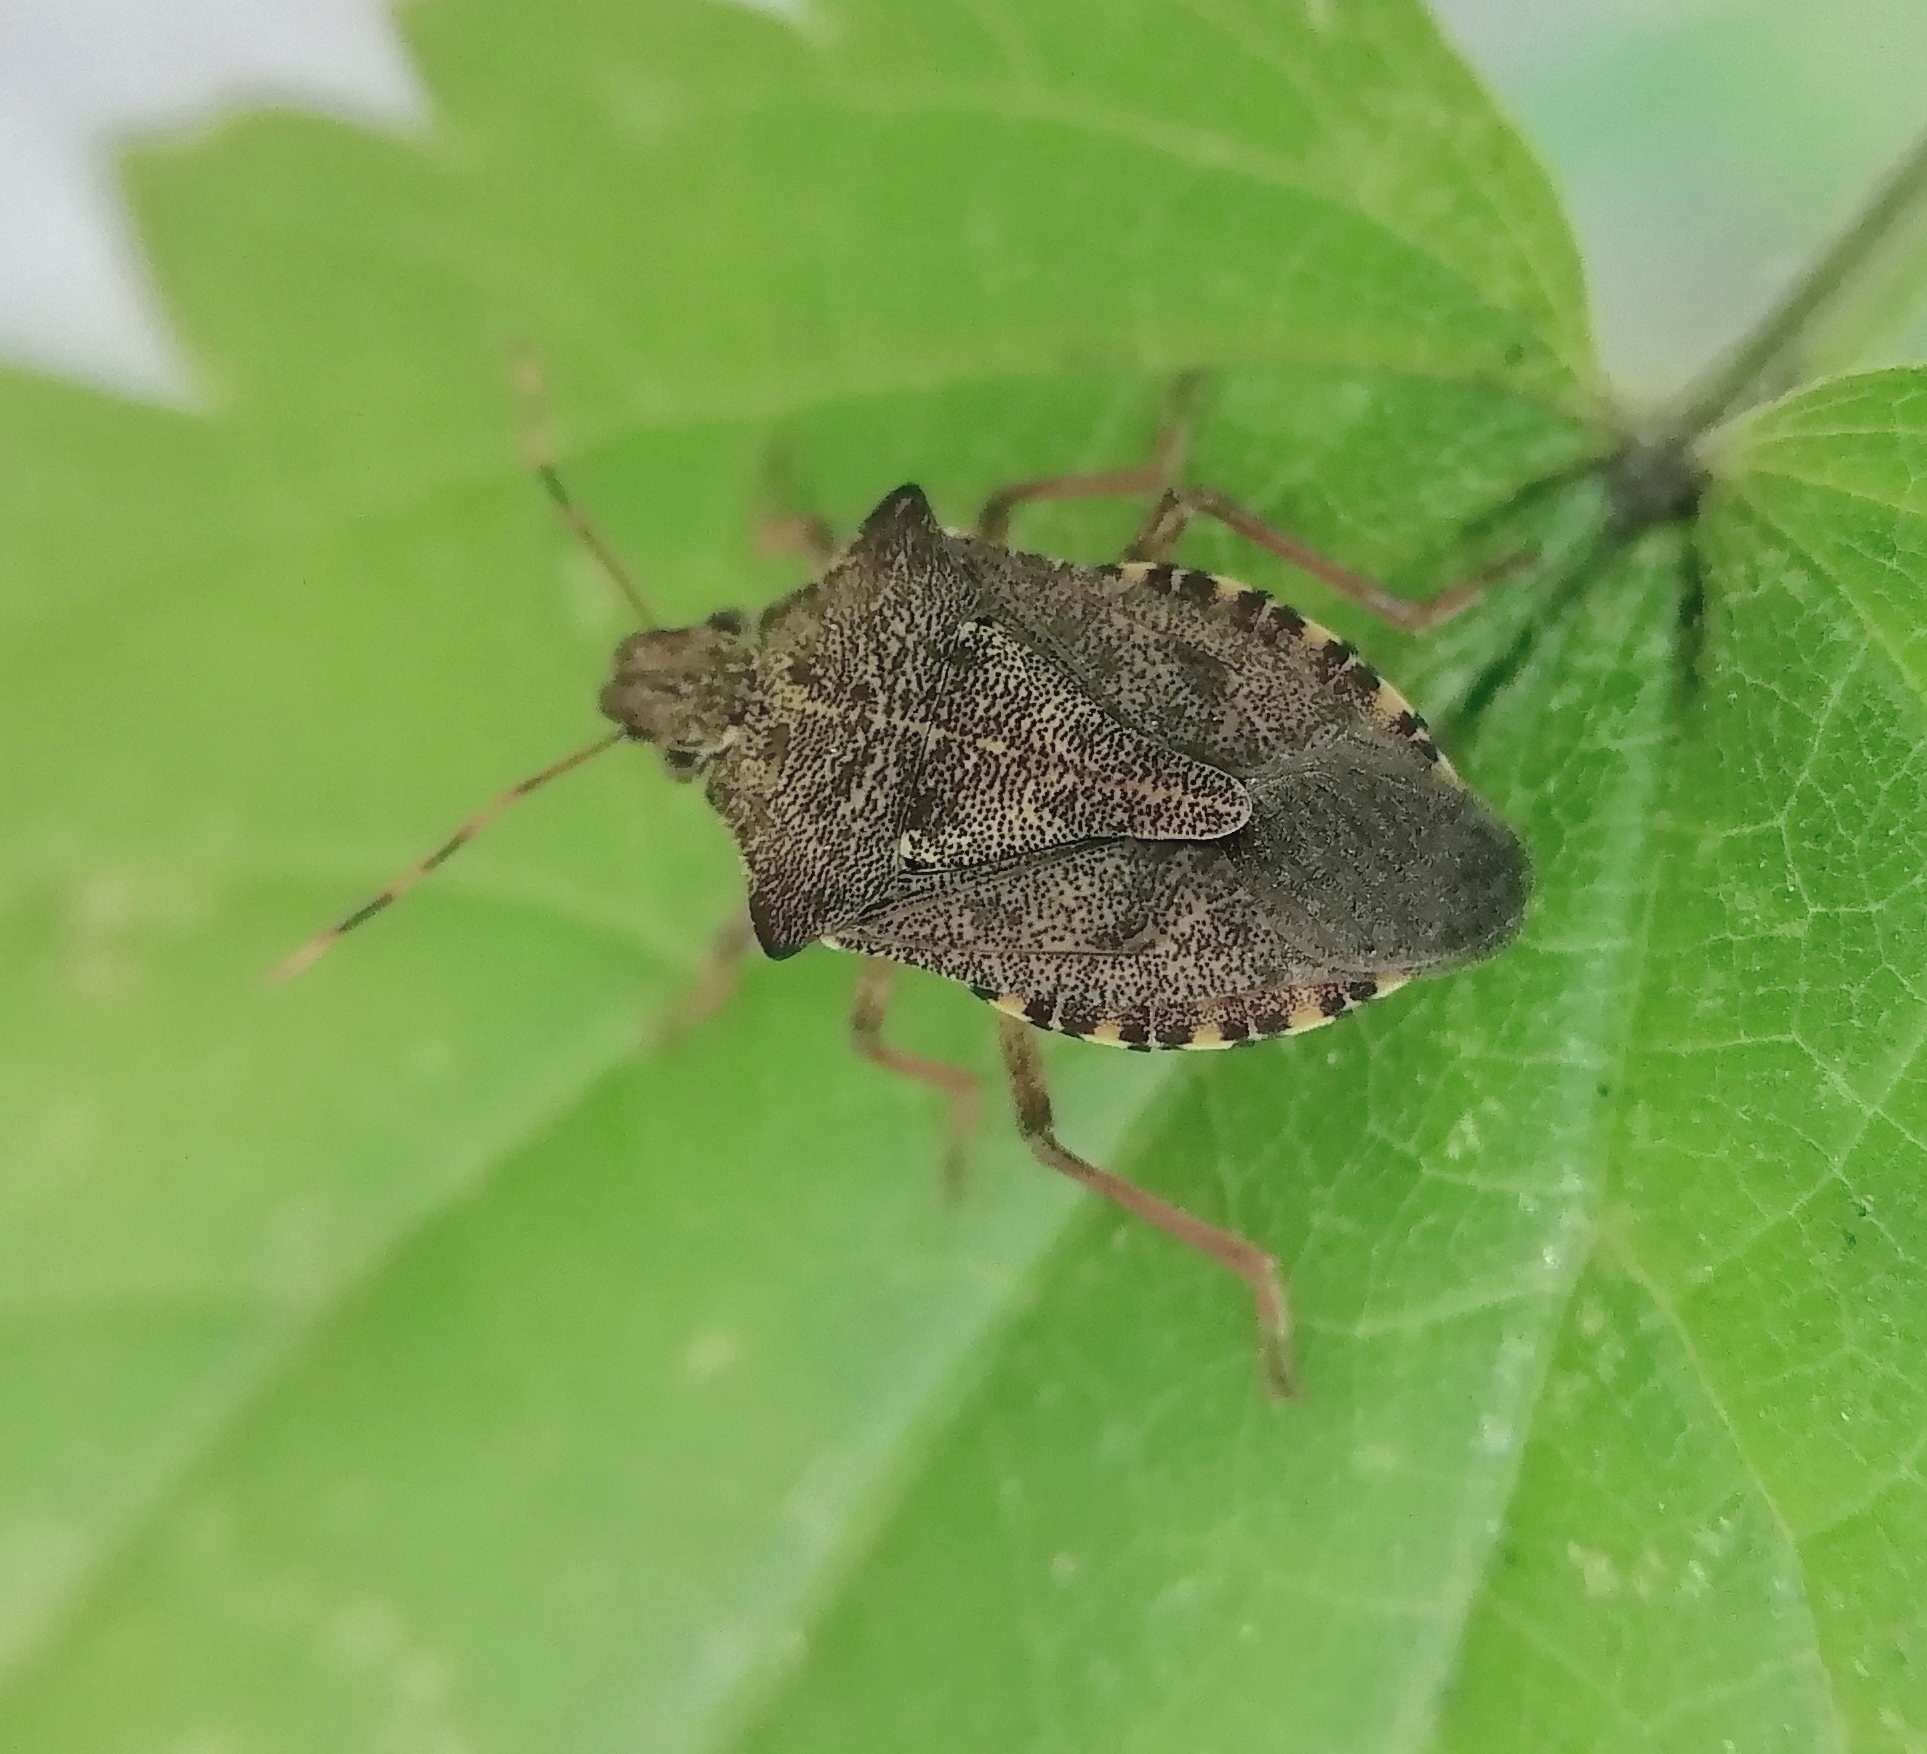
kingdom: Animalia
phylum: Arthropoda
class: Insecta
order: Hemiptera
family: Pentatomidae
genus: Arma
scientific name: Arma custos
